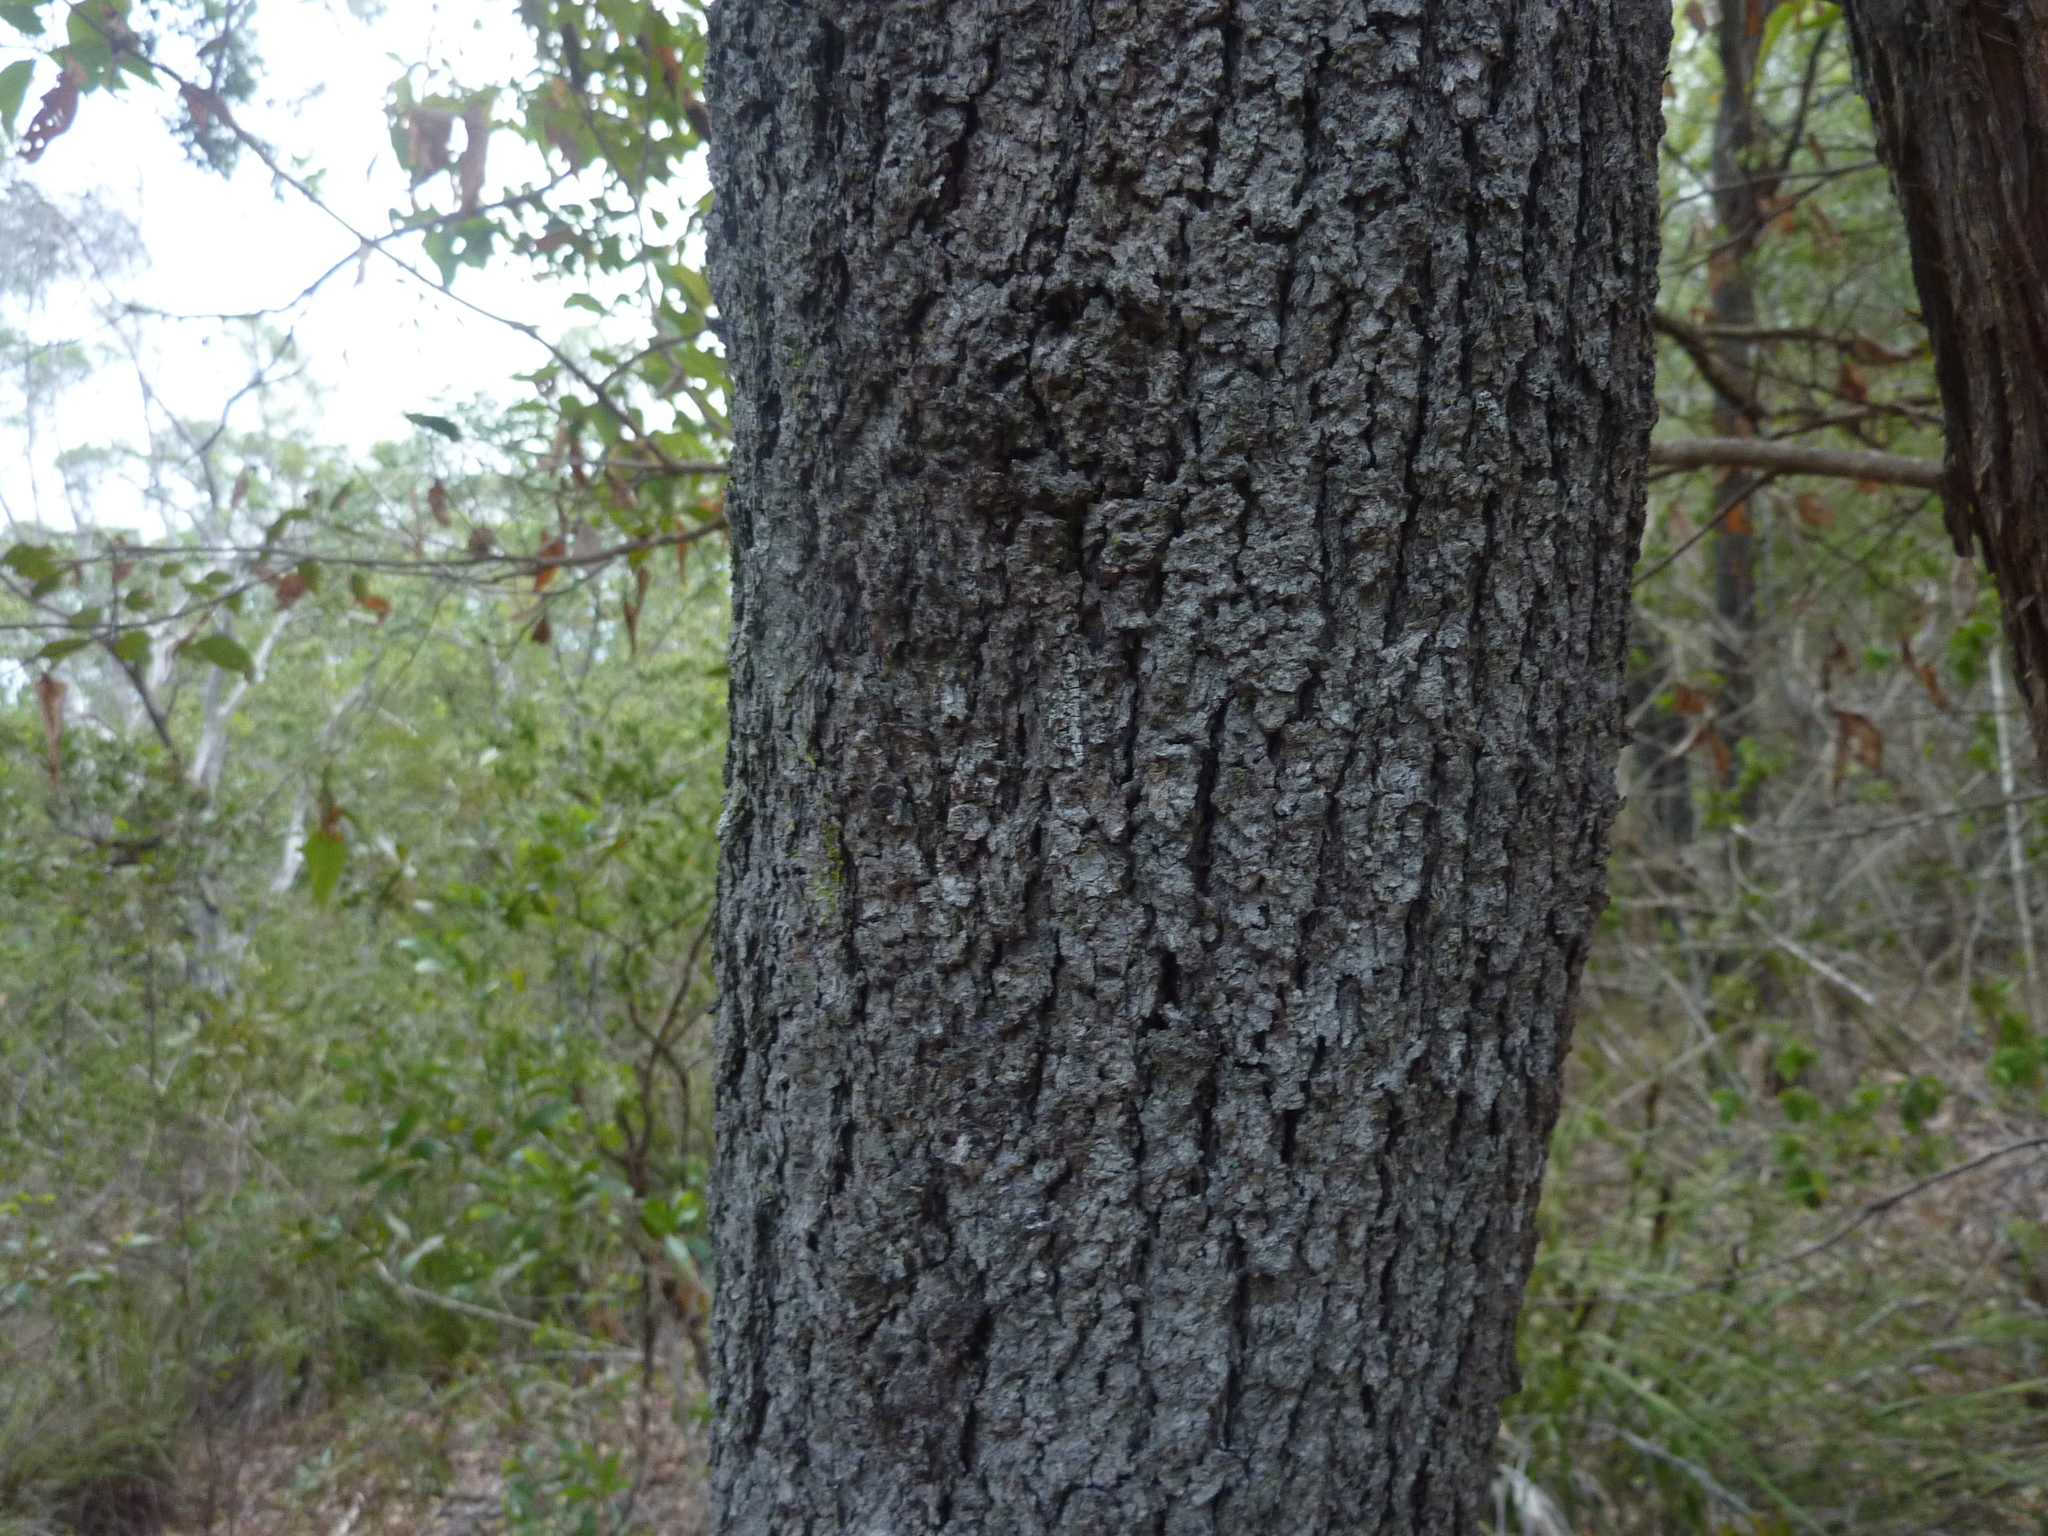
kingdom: Plantae
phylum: Tracheophyta
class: Magnoliopsida
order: Fabales
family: Fabaceae
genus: Acacia
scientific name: Acacia disparrima
